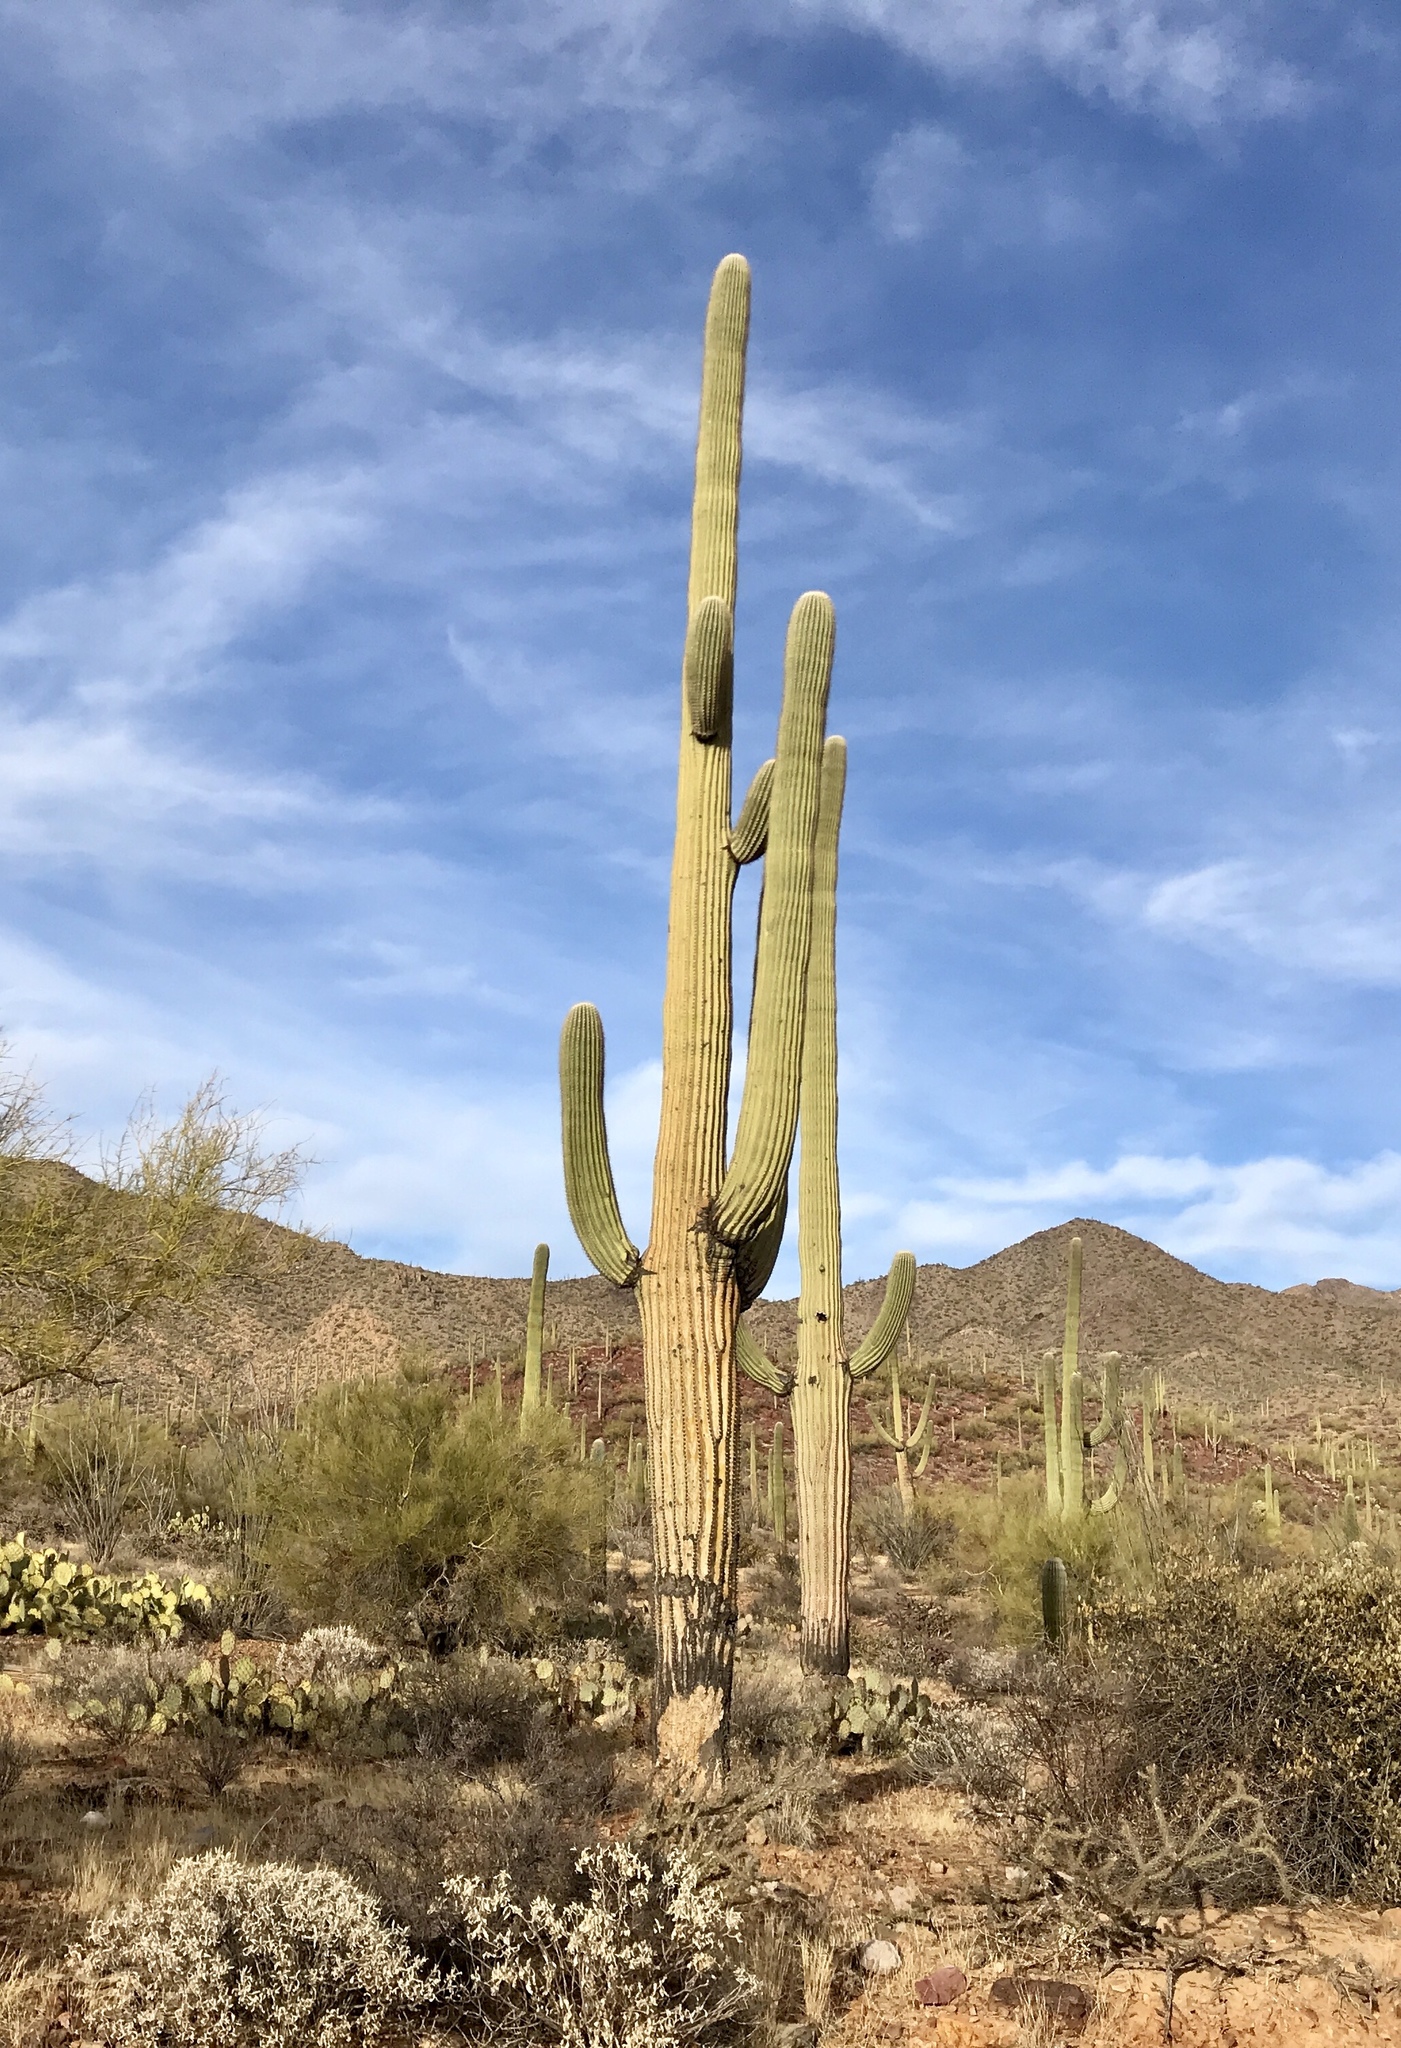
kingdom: Plantae
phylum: Tracheophyta
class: Magnoliopsida
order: Caryophyllales
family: Cactaceae
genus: Carnegiea
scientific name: Carnegiea gigantea
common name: Saguaro
